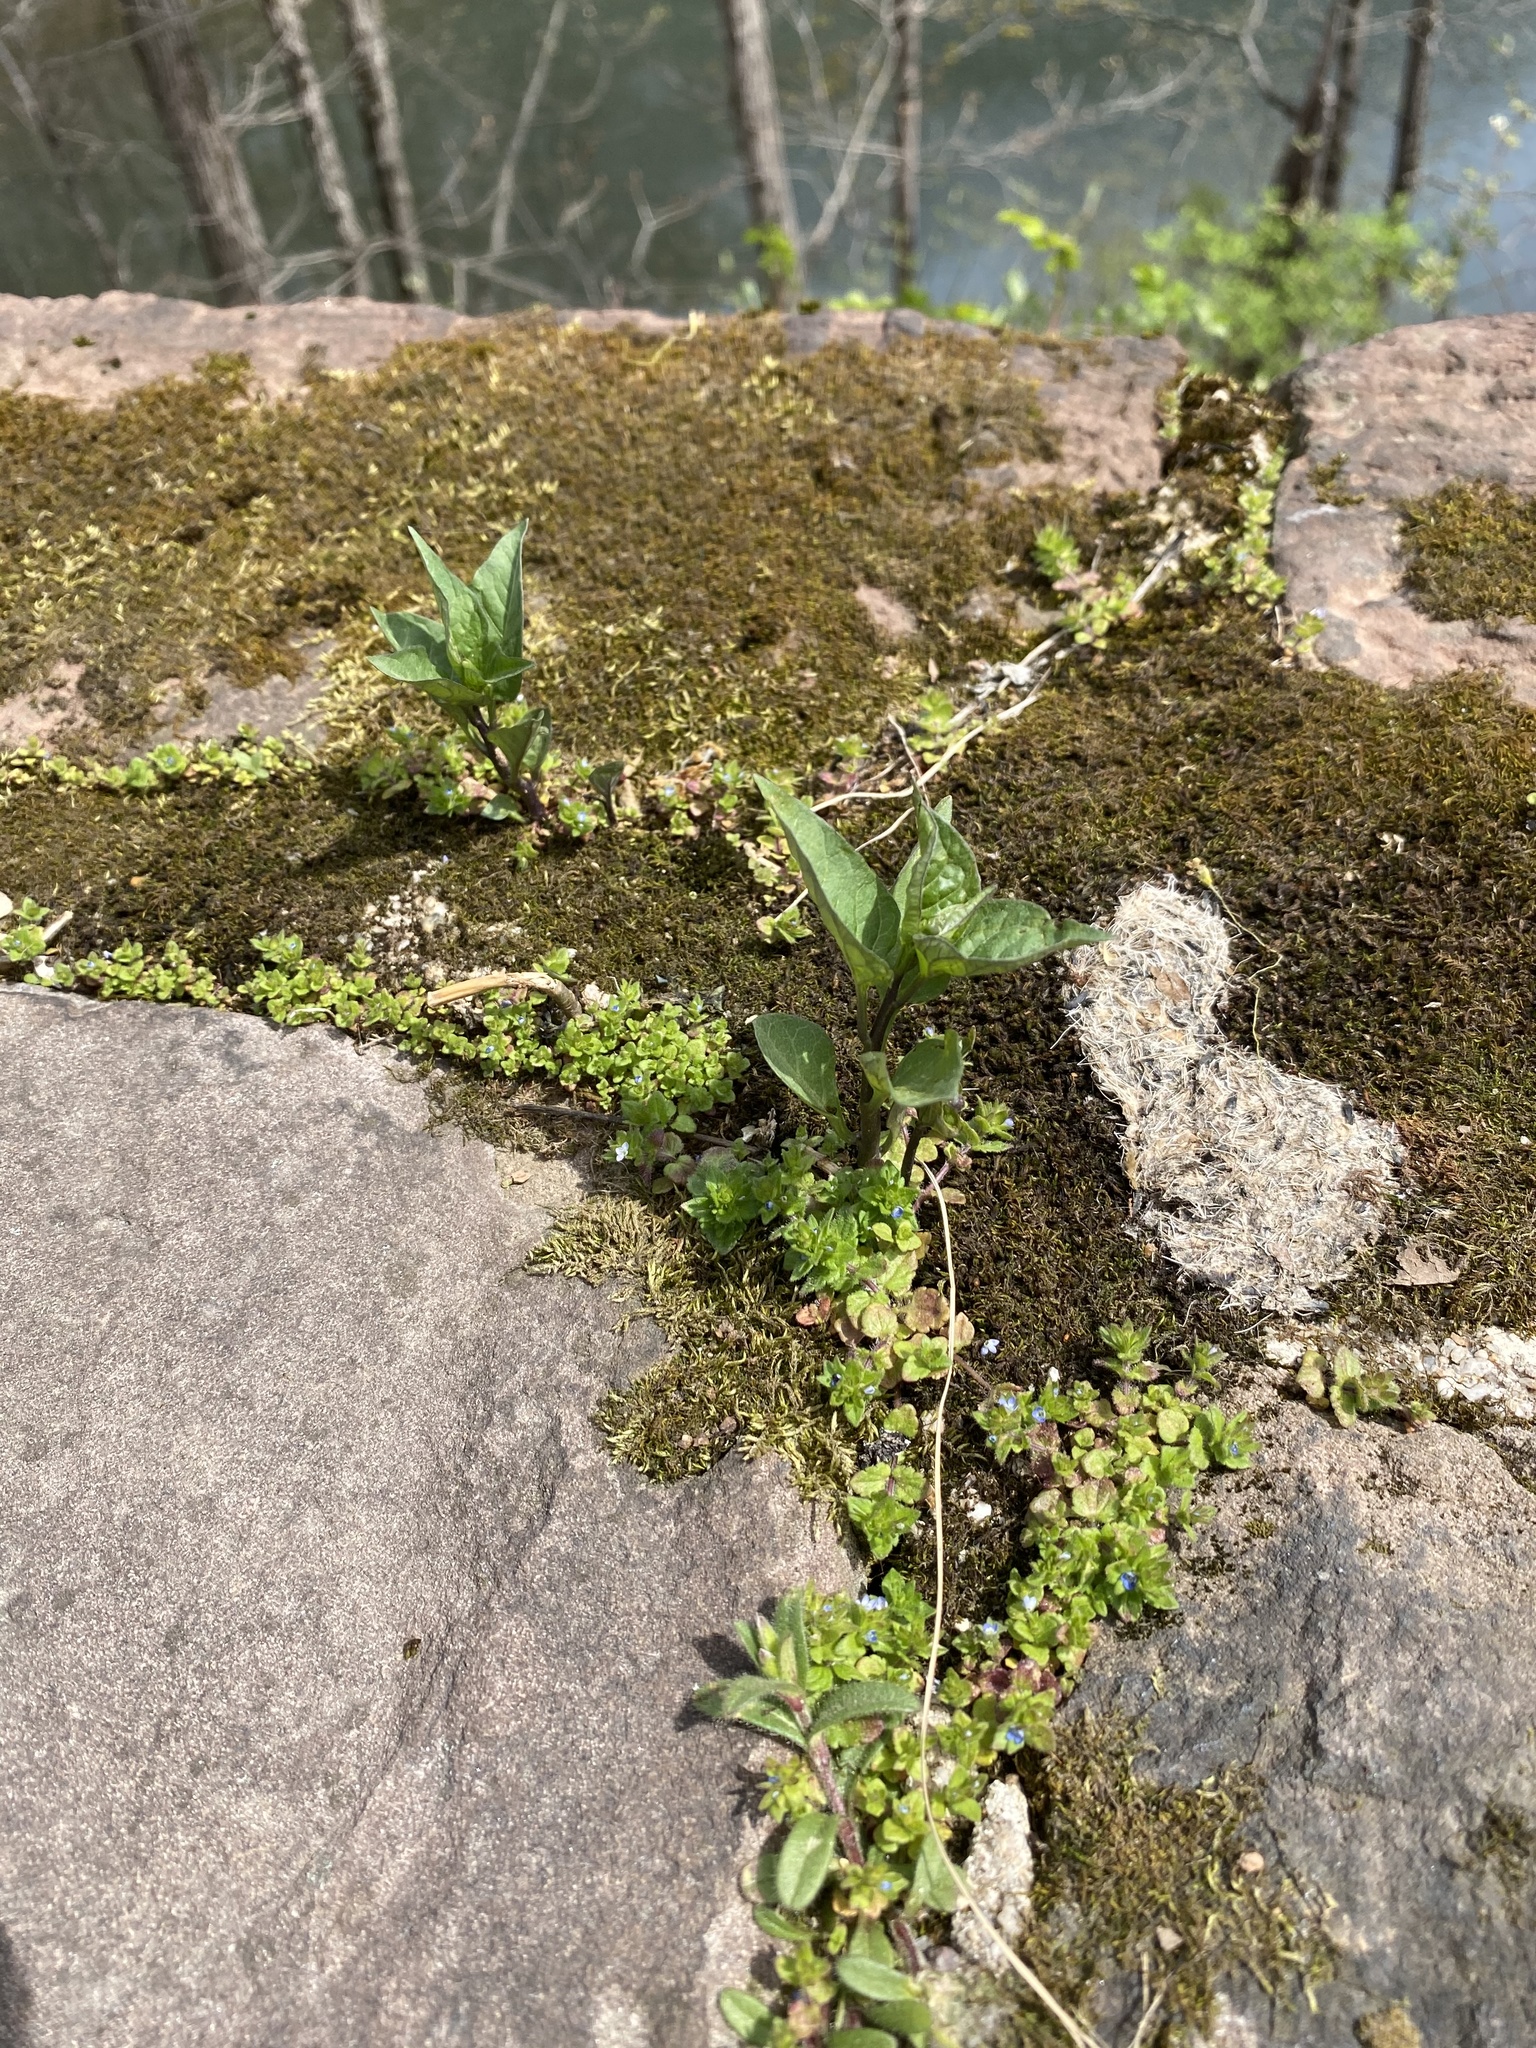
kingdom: Plantae
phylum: Tracheophyta
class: Magnoliopsida
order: Solanales
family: Solanaceae
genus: Solanum
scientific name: Solanum dulcamara
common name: Climbing nightshade
